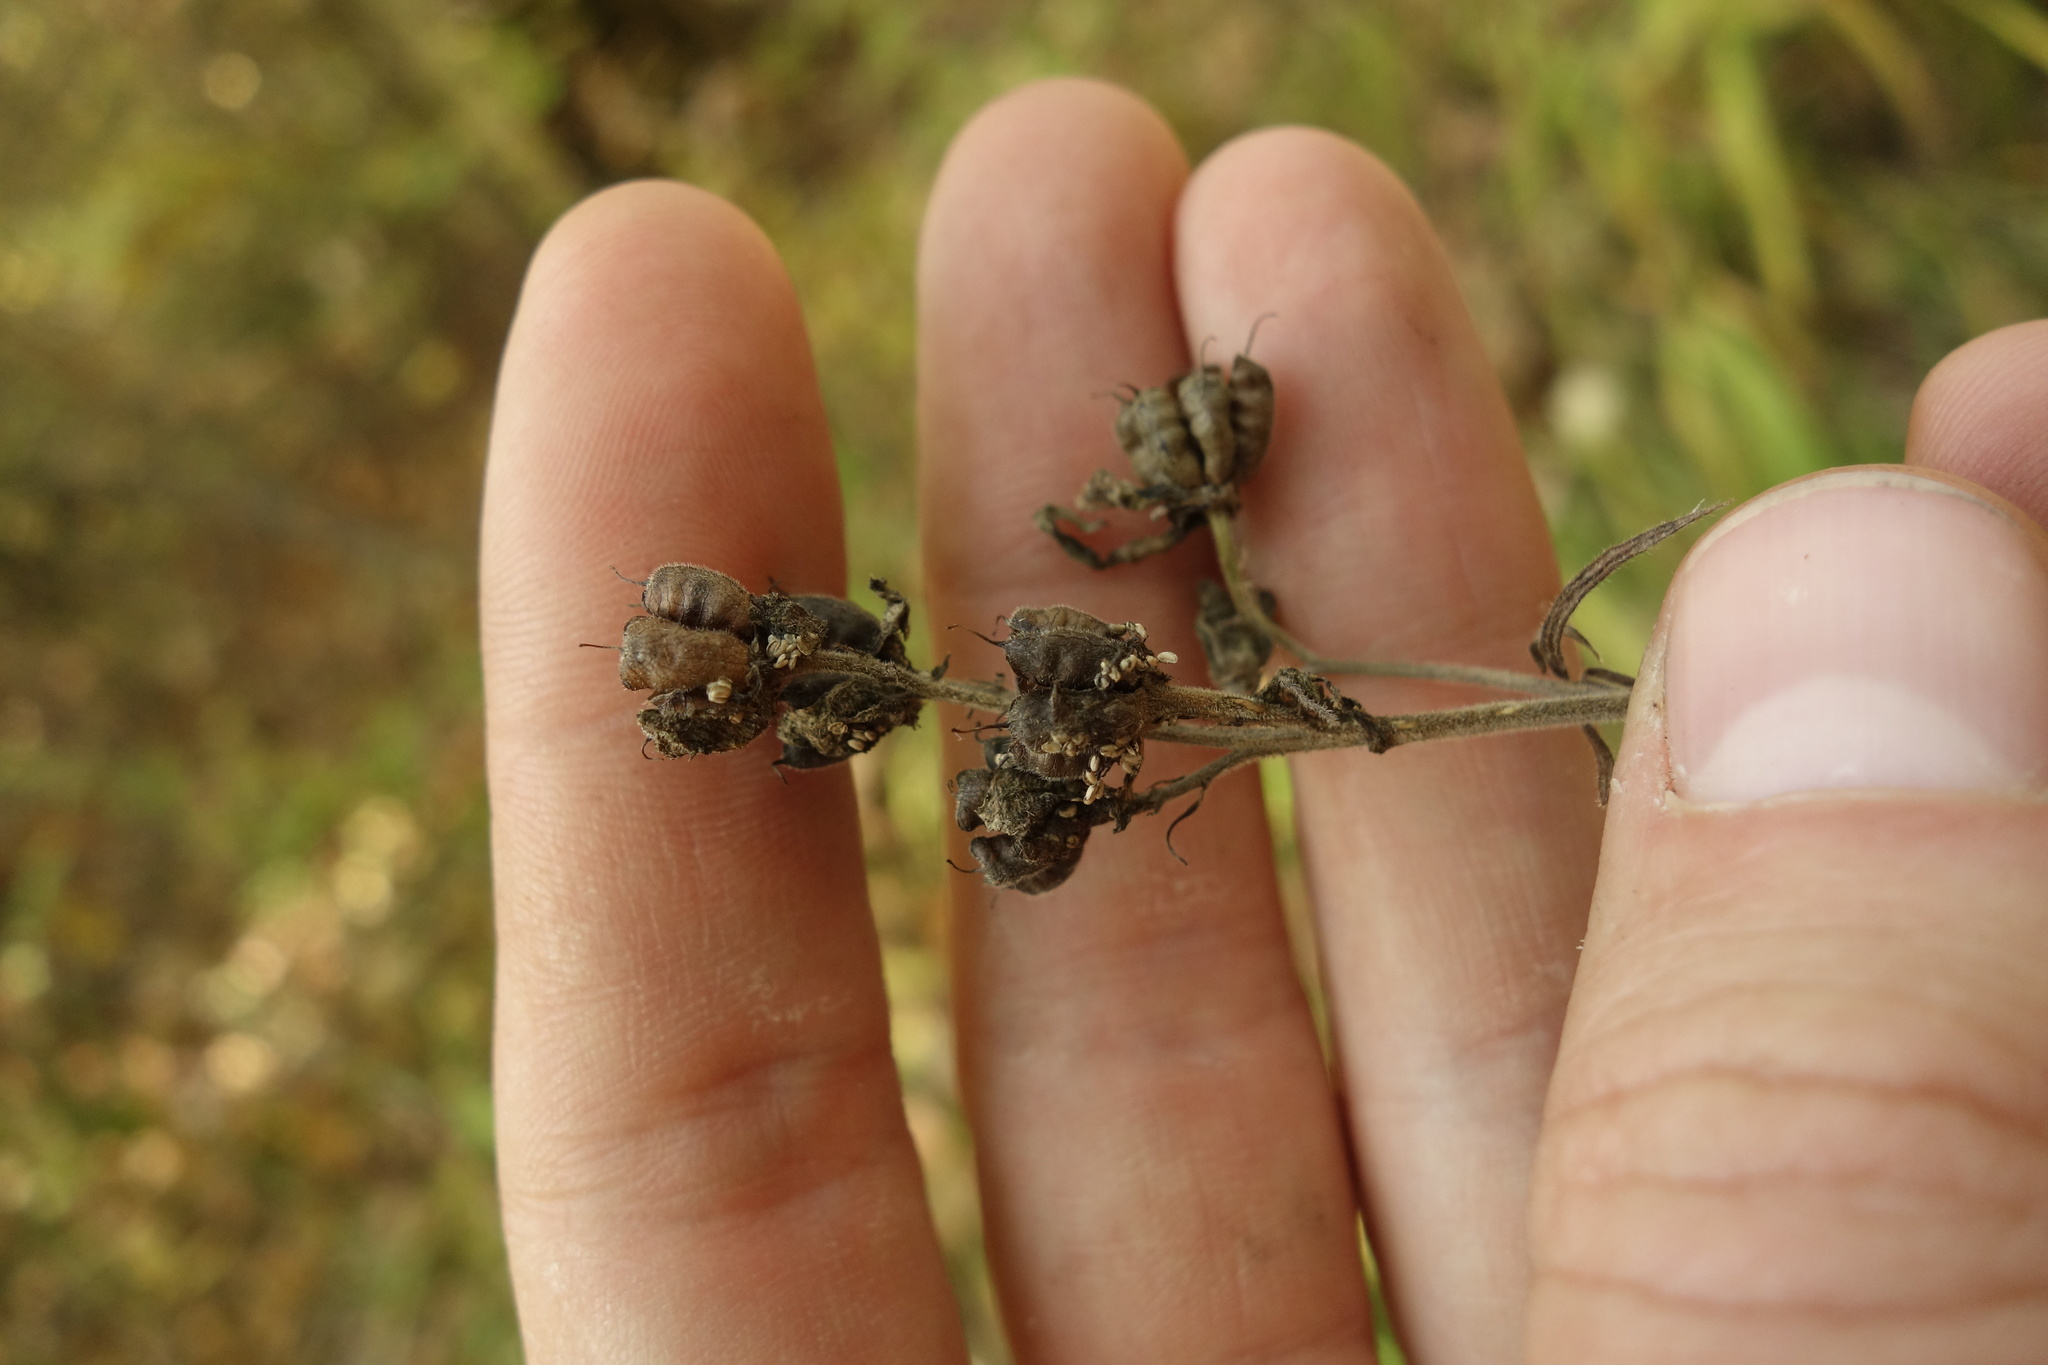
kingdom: Plantae
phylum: Tracheophyta
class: Magnoliopsida
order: Ranunculales
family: Ranunculaceae
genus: Aconitum
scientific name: Aconitum anthora
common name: Yellow monkshood
